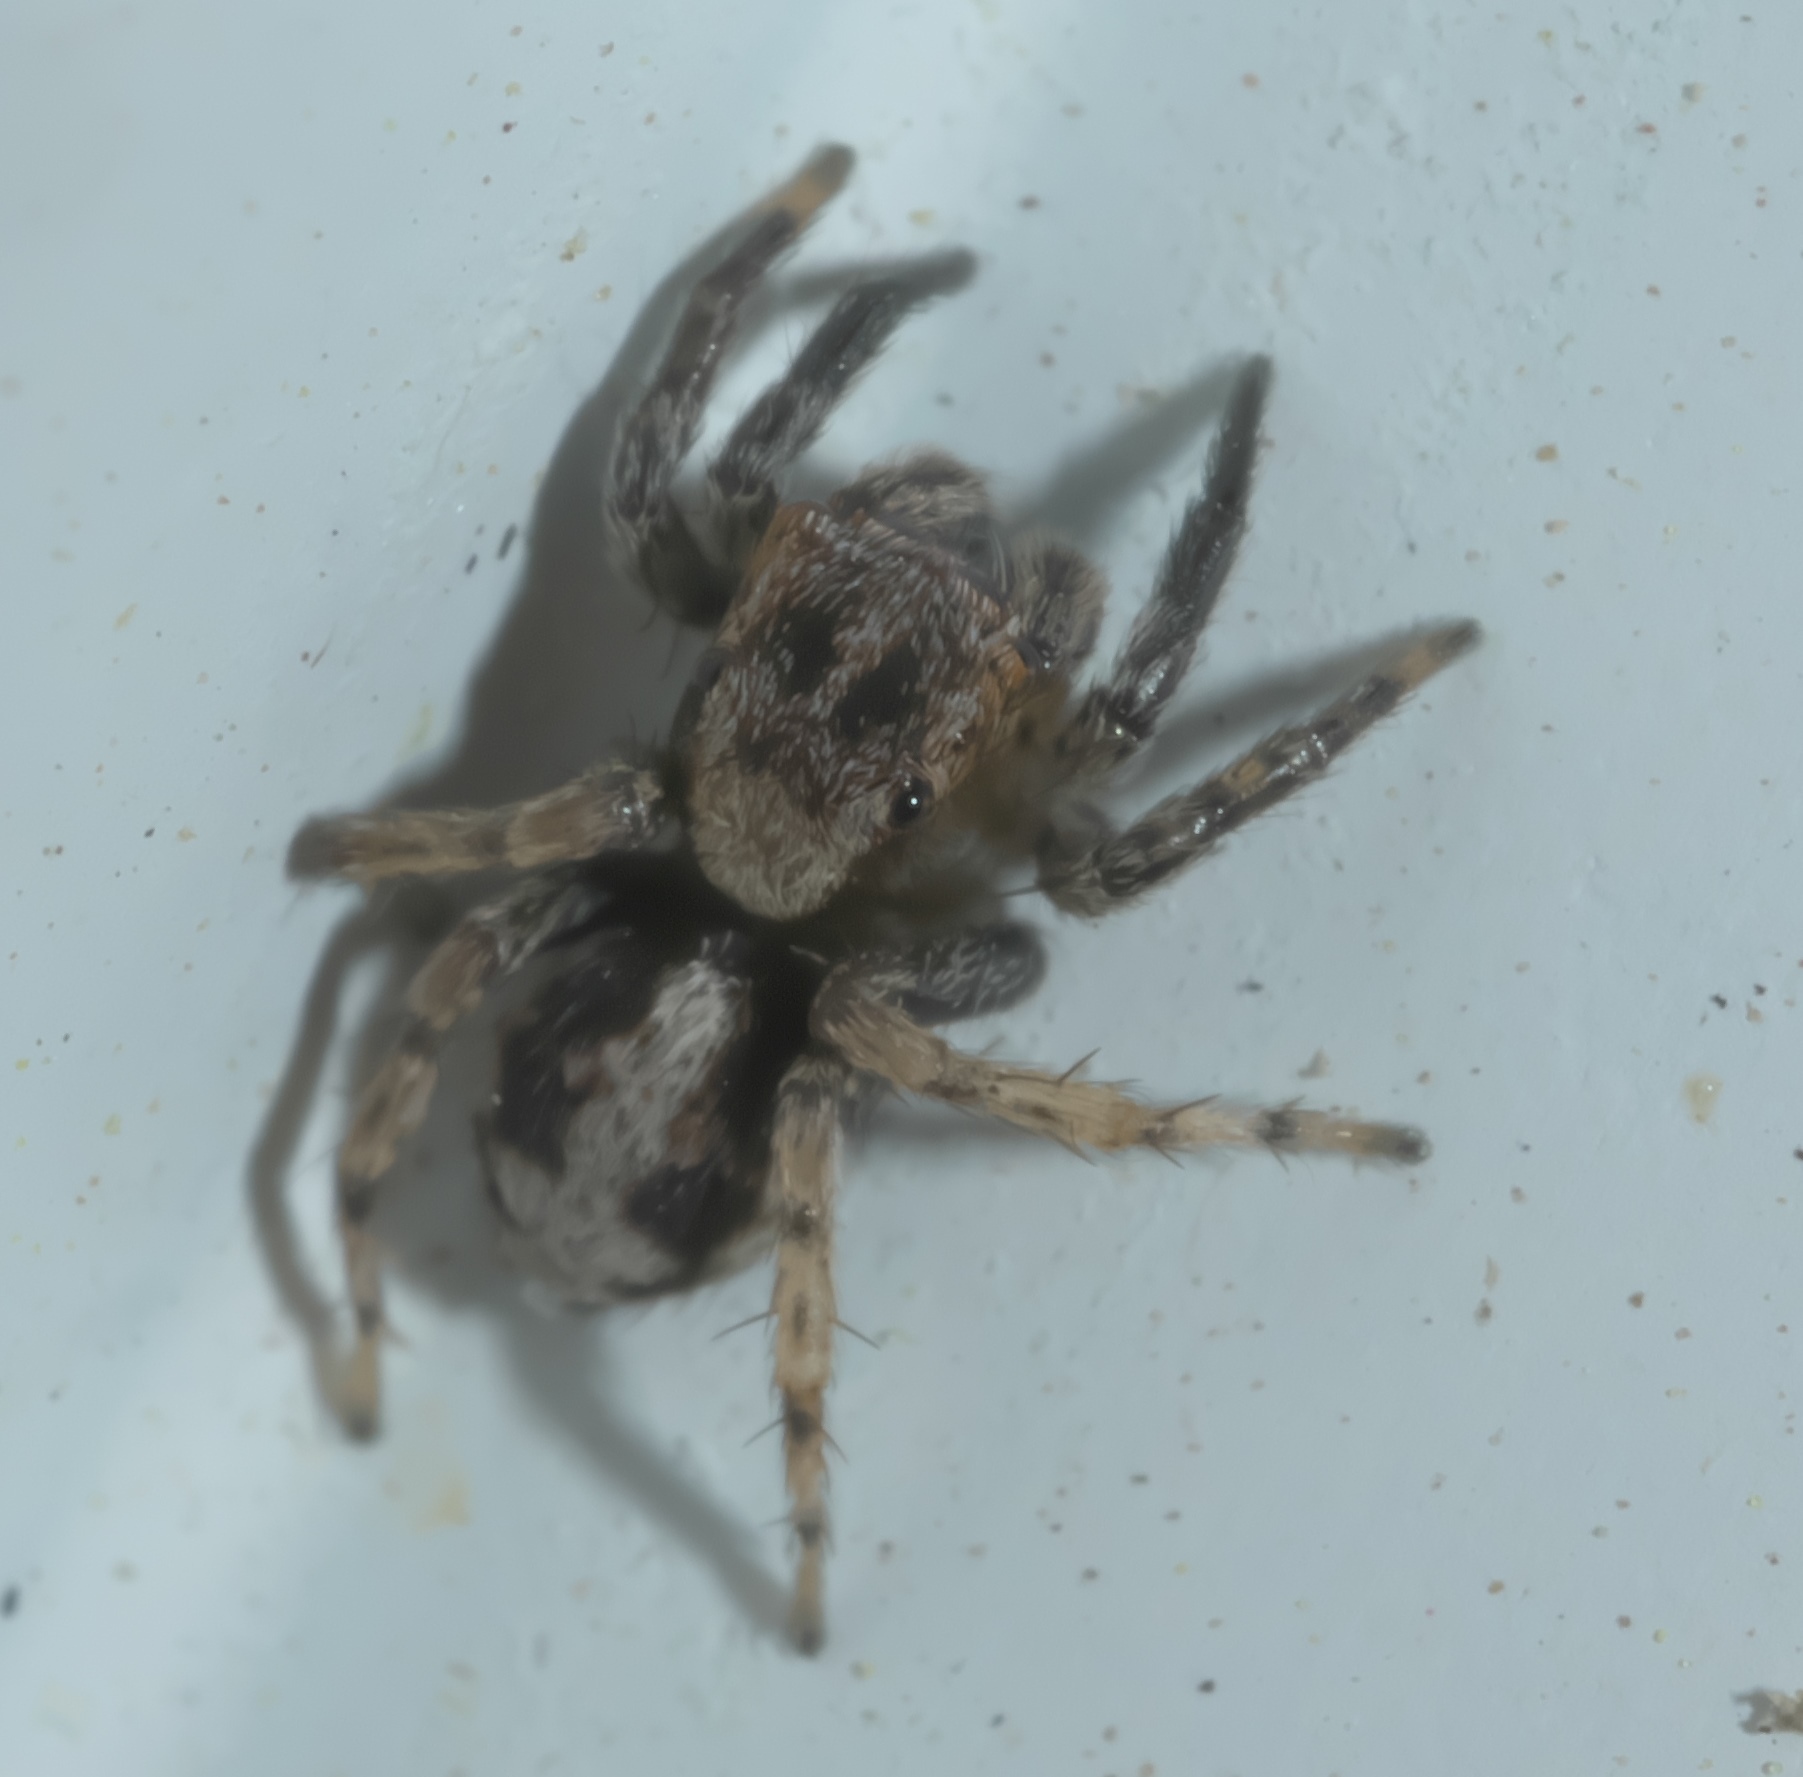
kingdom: Animalia
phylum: Arthropoda
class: Arachnida
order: Araneae
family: Salticidae
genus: Naphrys
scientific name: Naphrys pulex
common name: Flea jumping spider
